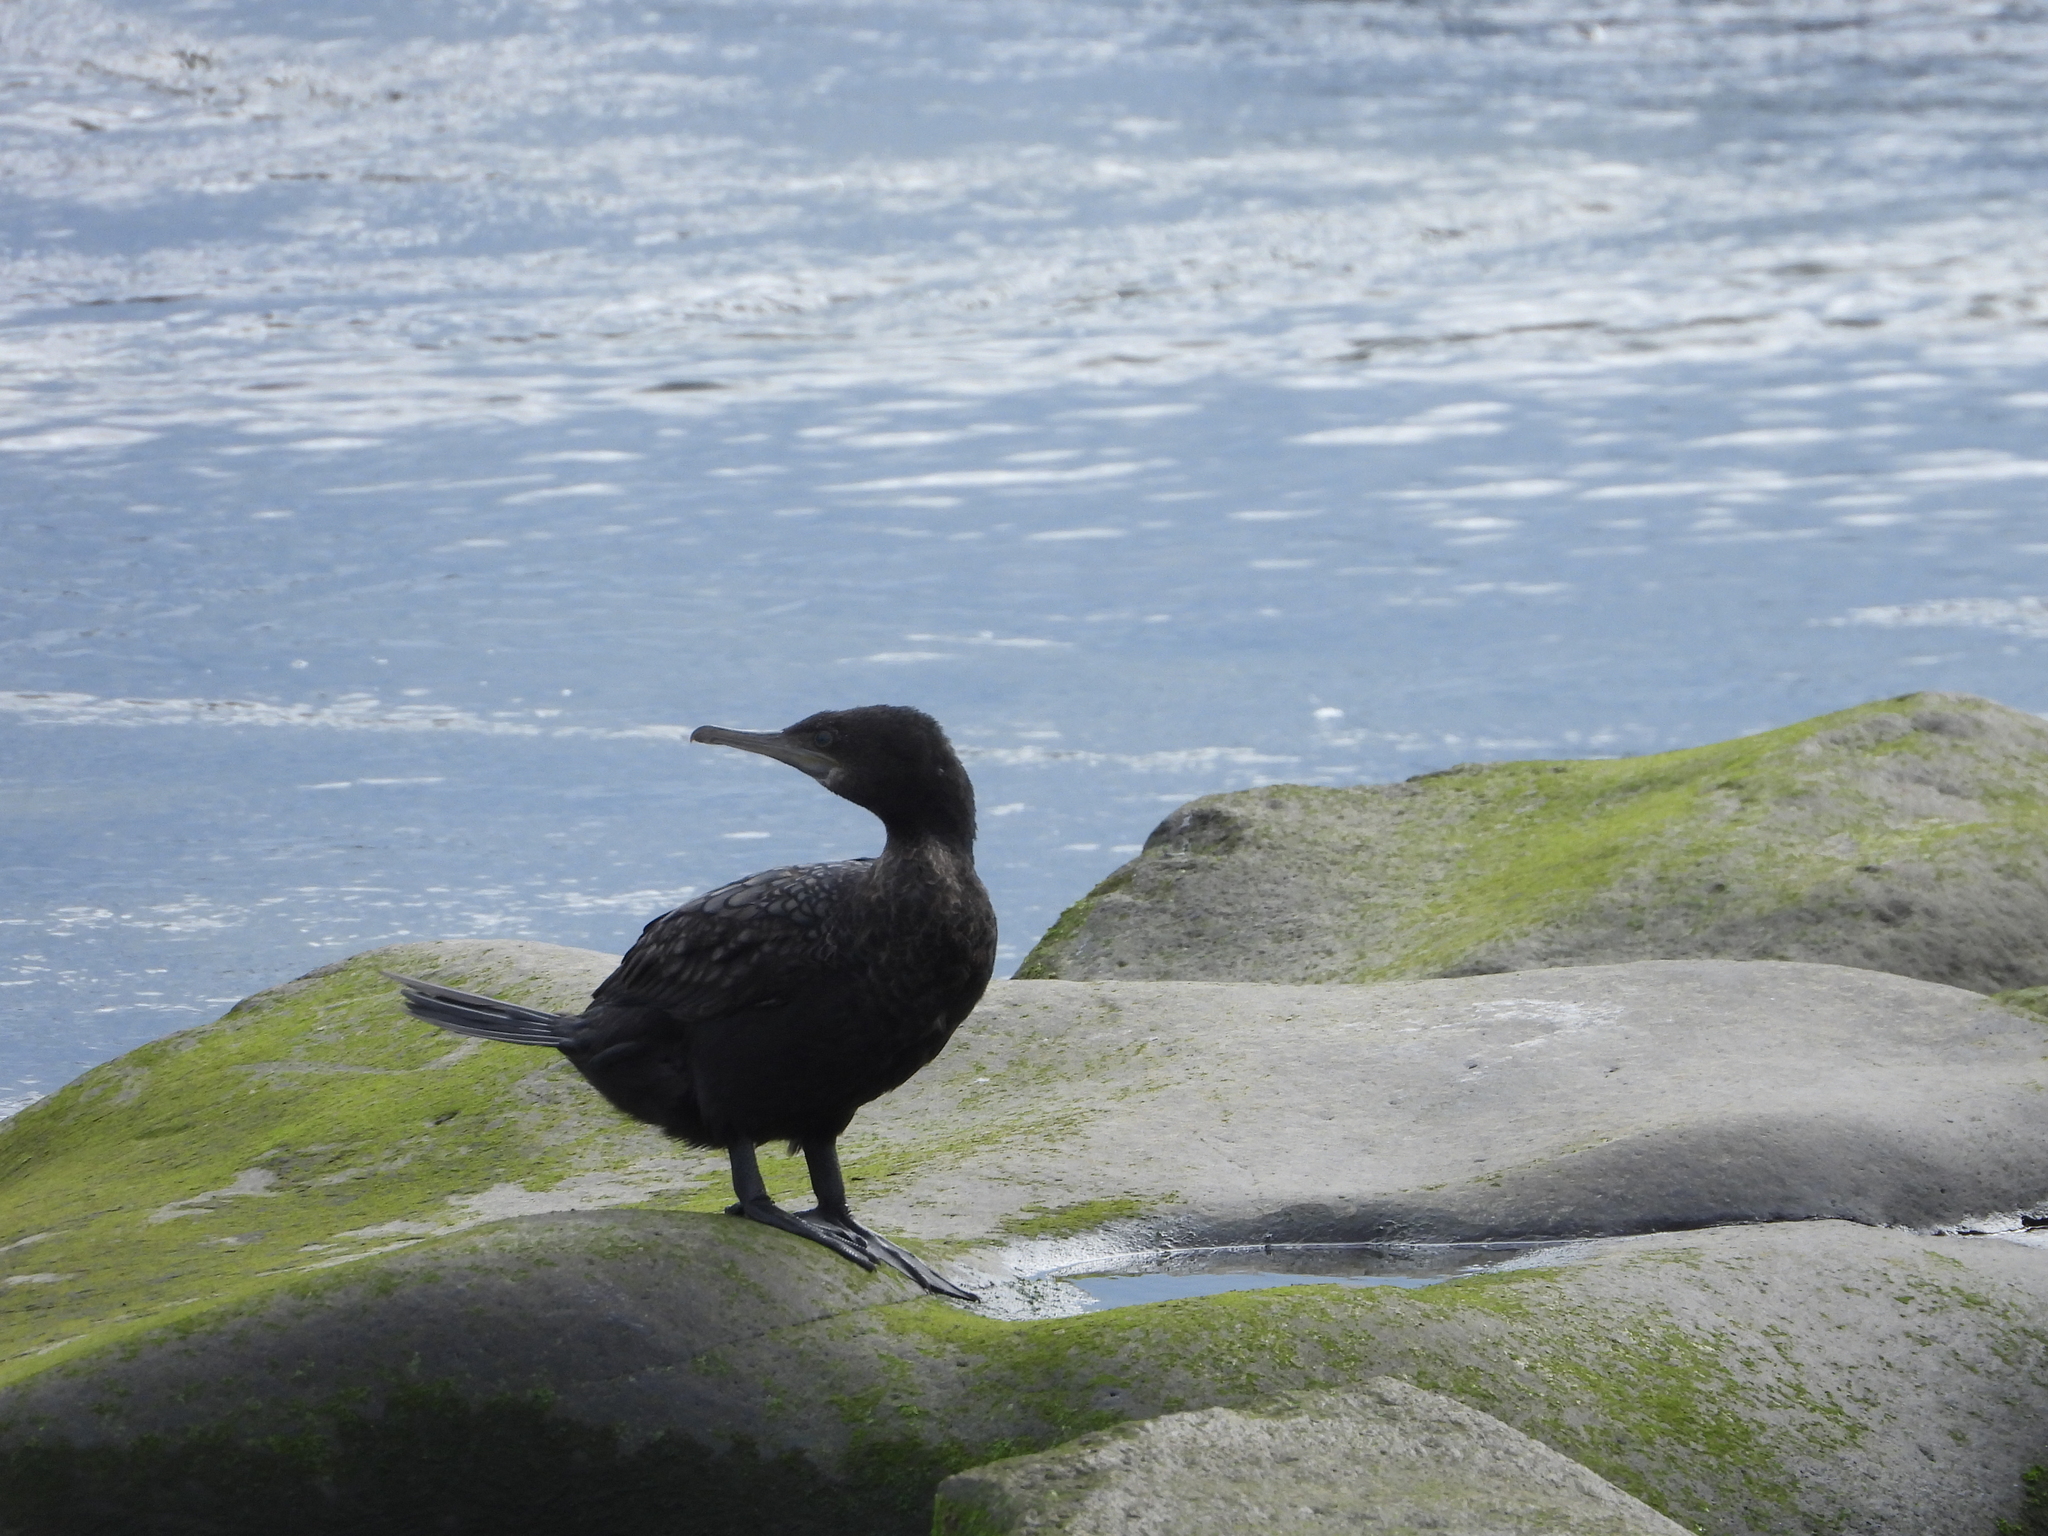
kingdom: Animalia
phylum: Chordata
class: Aves
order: Suliformes
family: Phalacrocoracidae
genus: Phalacrocorax
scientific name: Phalacrocorax sulcirostris
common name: Little black cormorant
